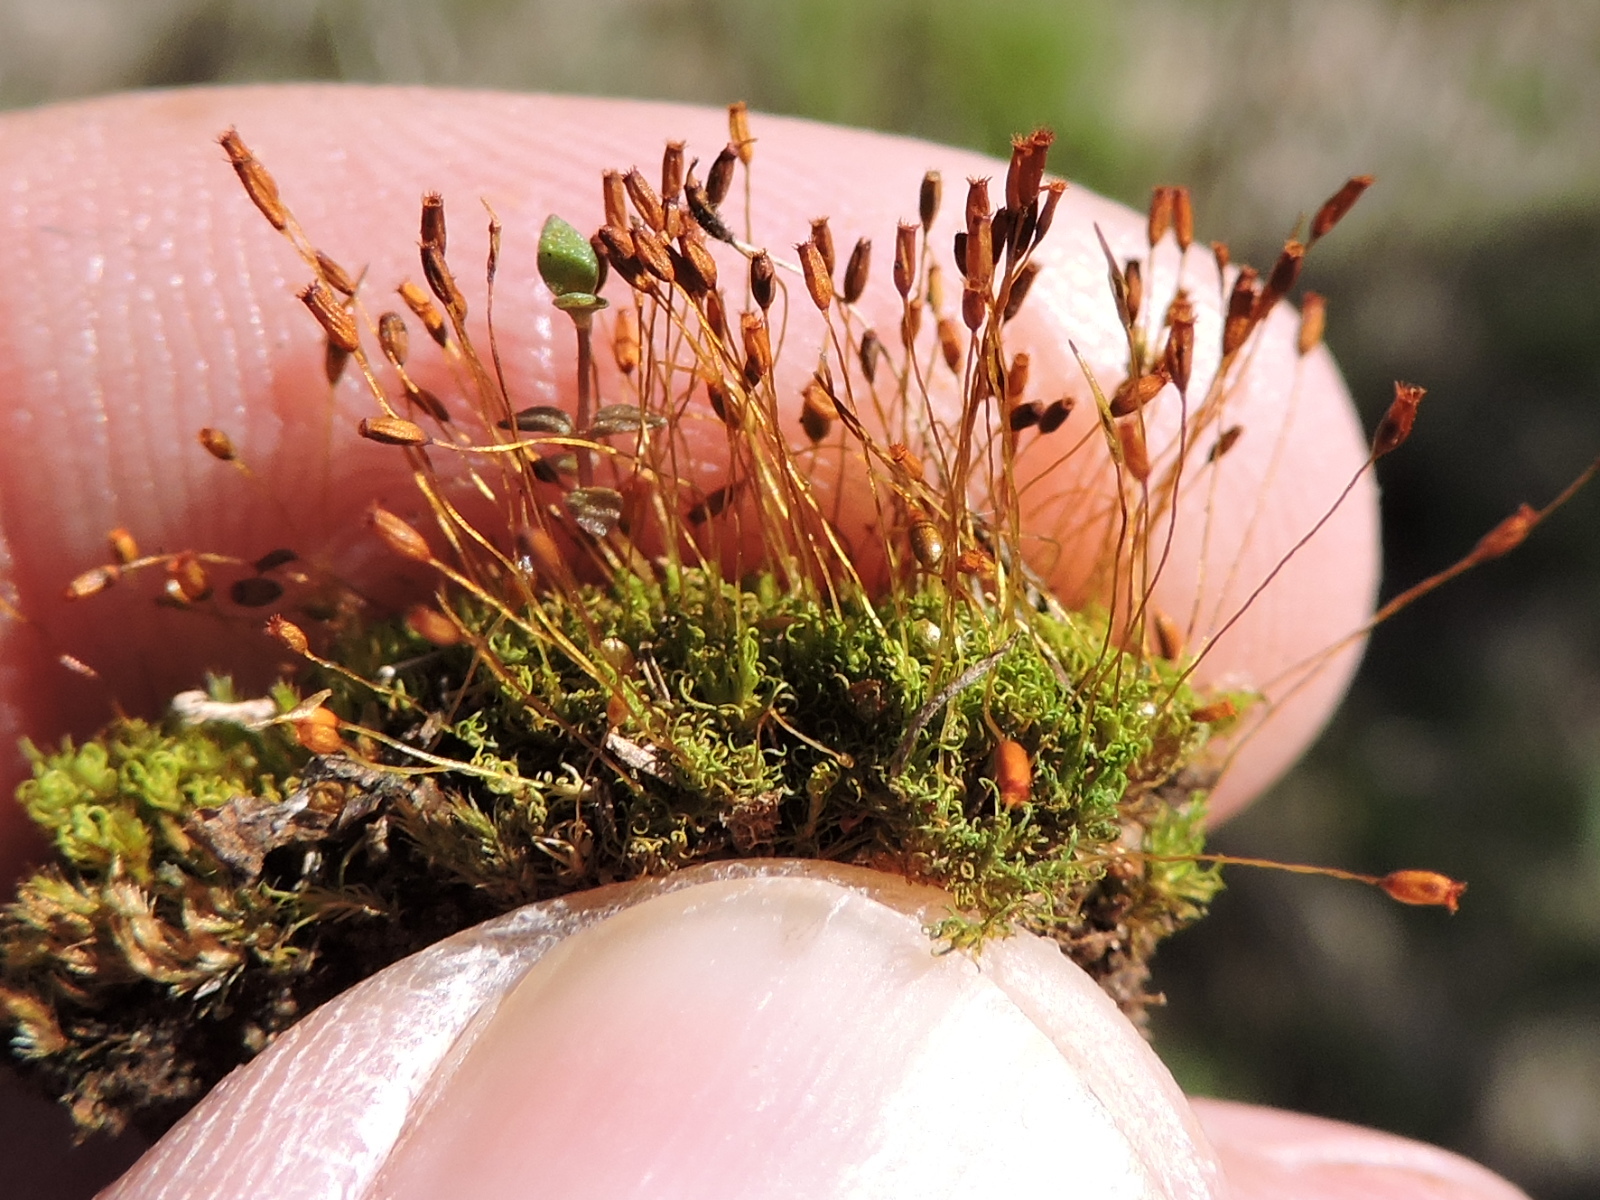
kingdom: Plantae
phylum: Bryophyta
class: Bryopsida
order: Pottiales
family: Pottiaceae
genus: Weissia
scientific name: Weissia controversa
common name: Green-tufted stubble moss
